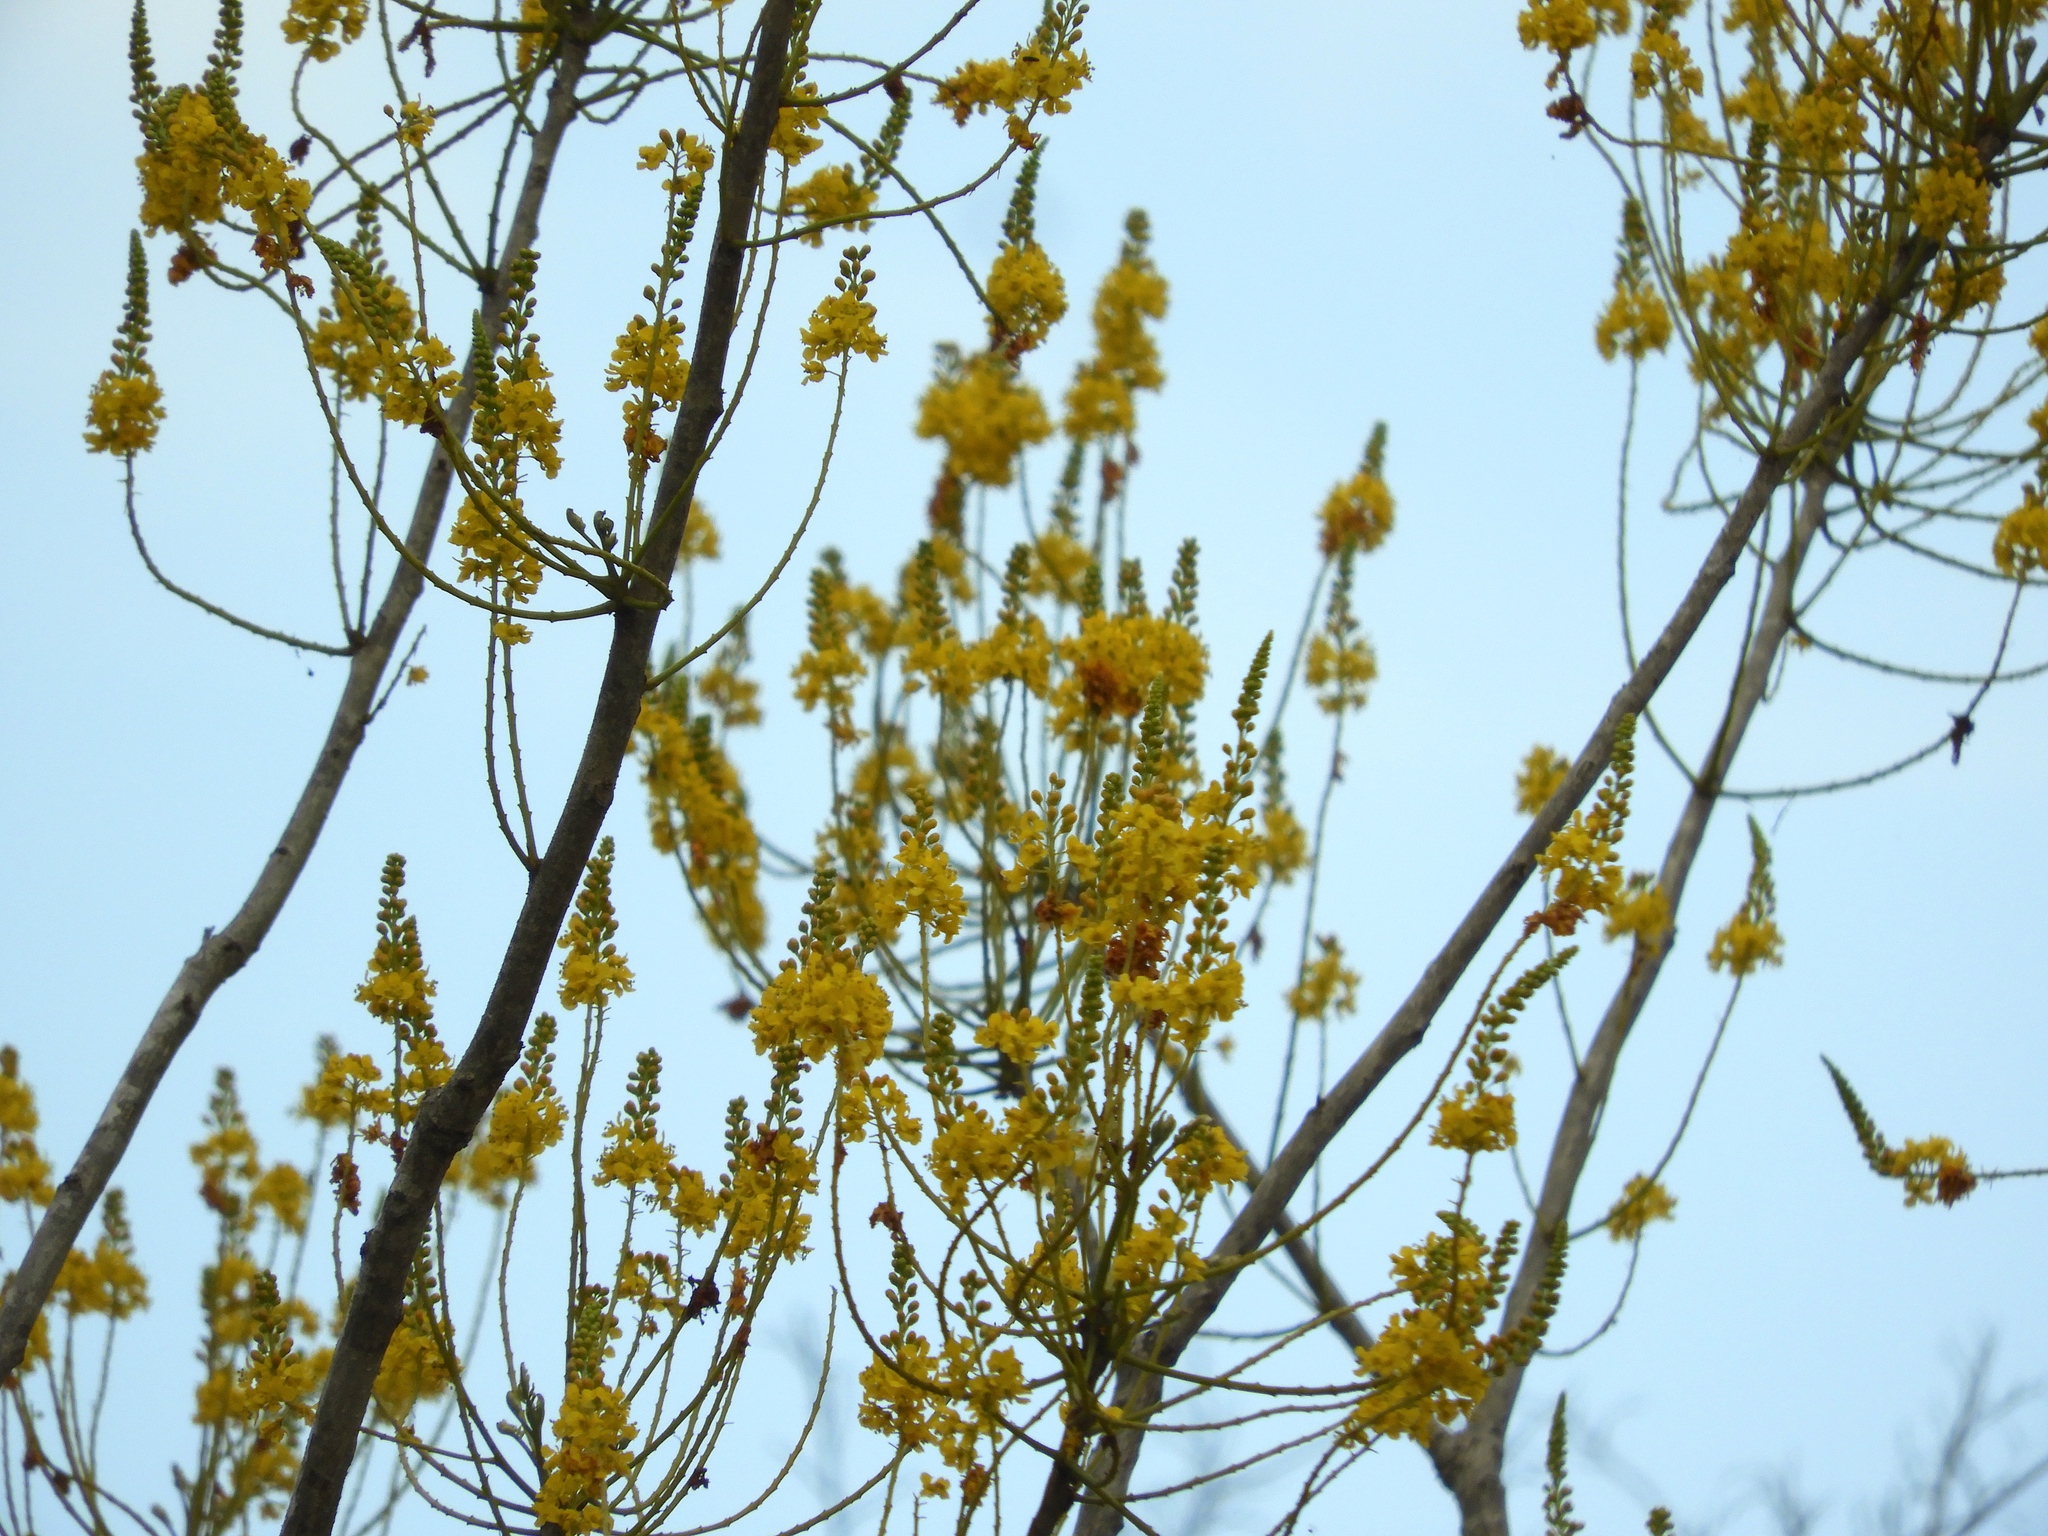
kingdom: Plantae
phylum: Tracheophyta
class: Magnoliopsida
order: Fabales
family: Fabaceae
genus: Conzattia
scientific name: Conzattia sericea
